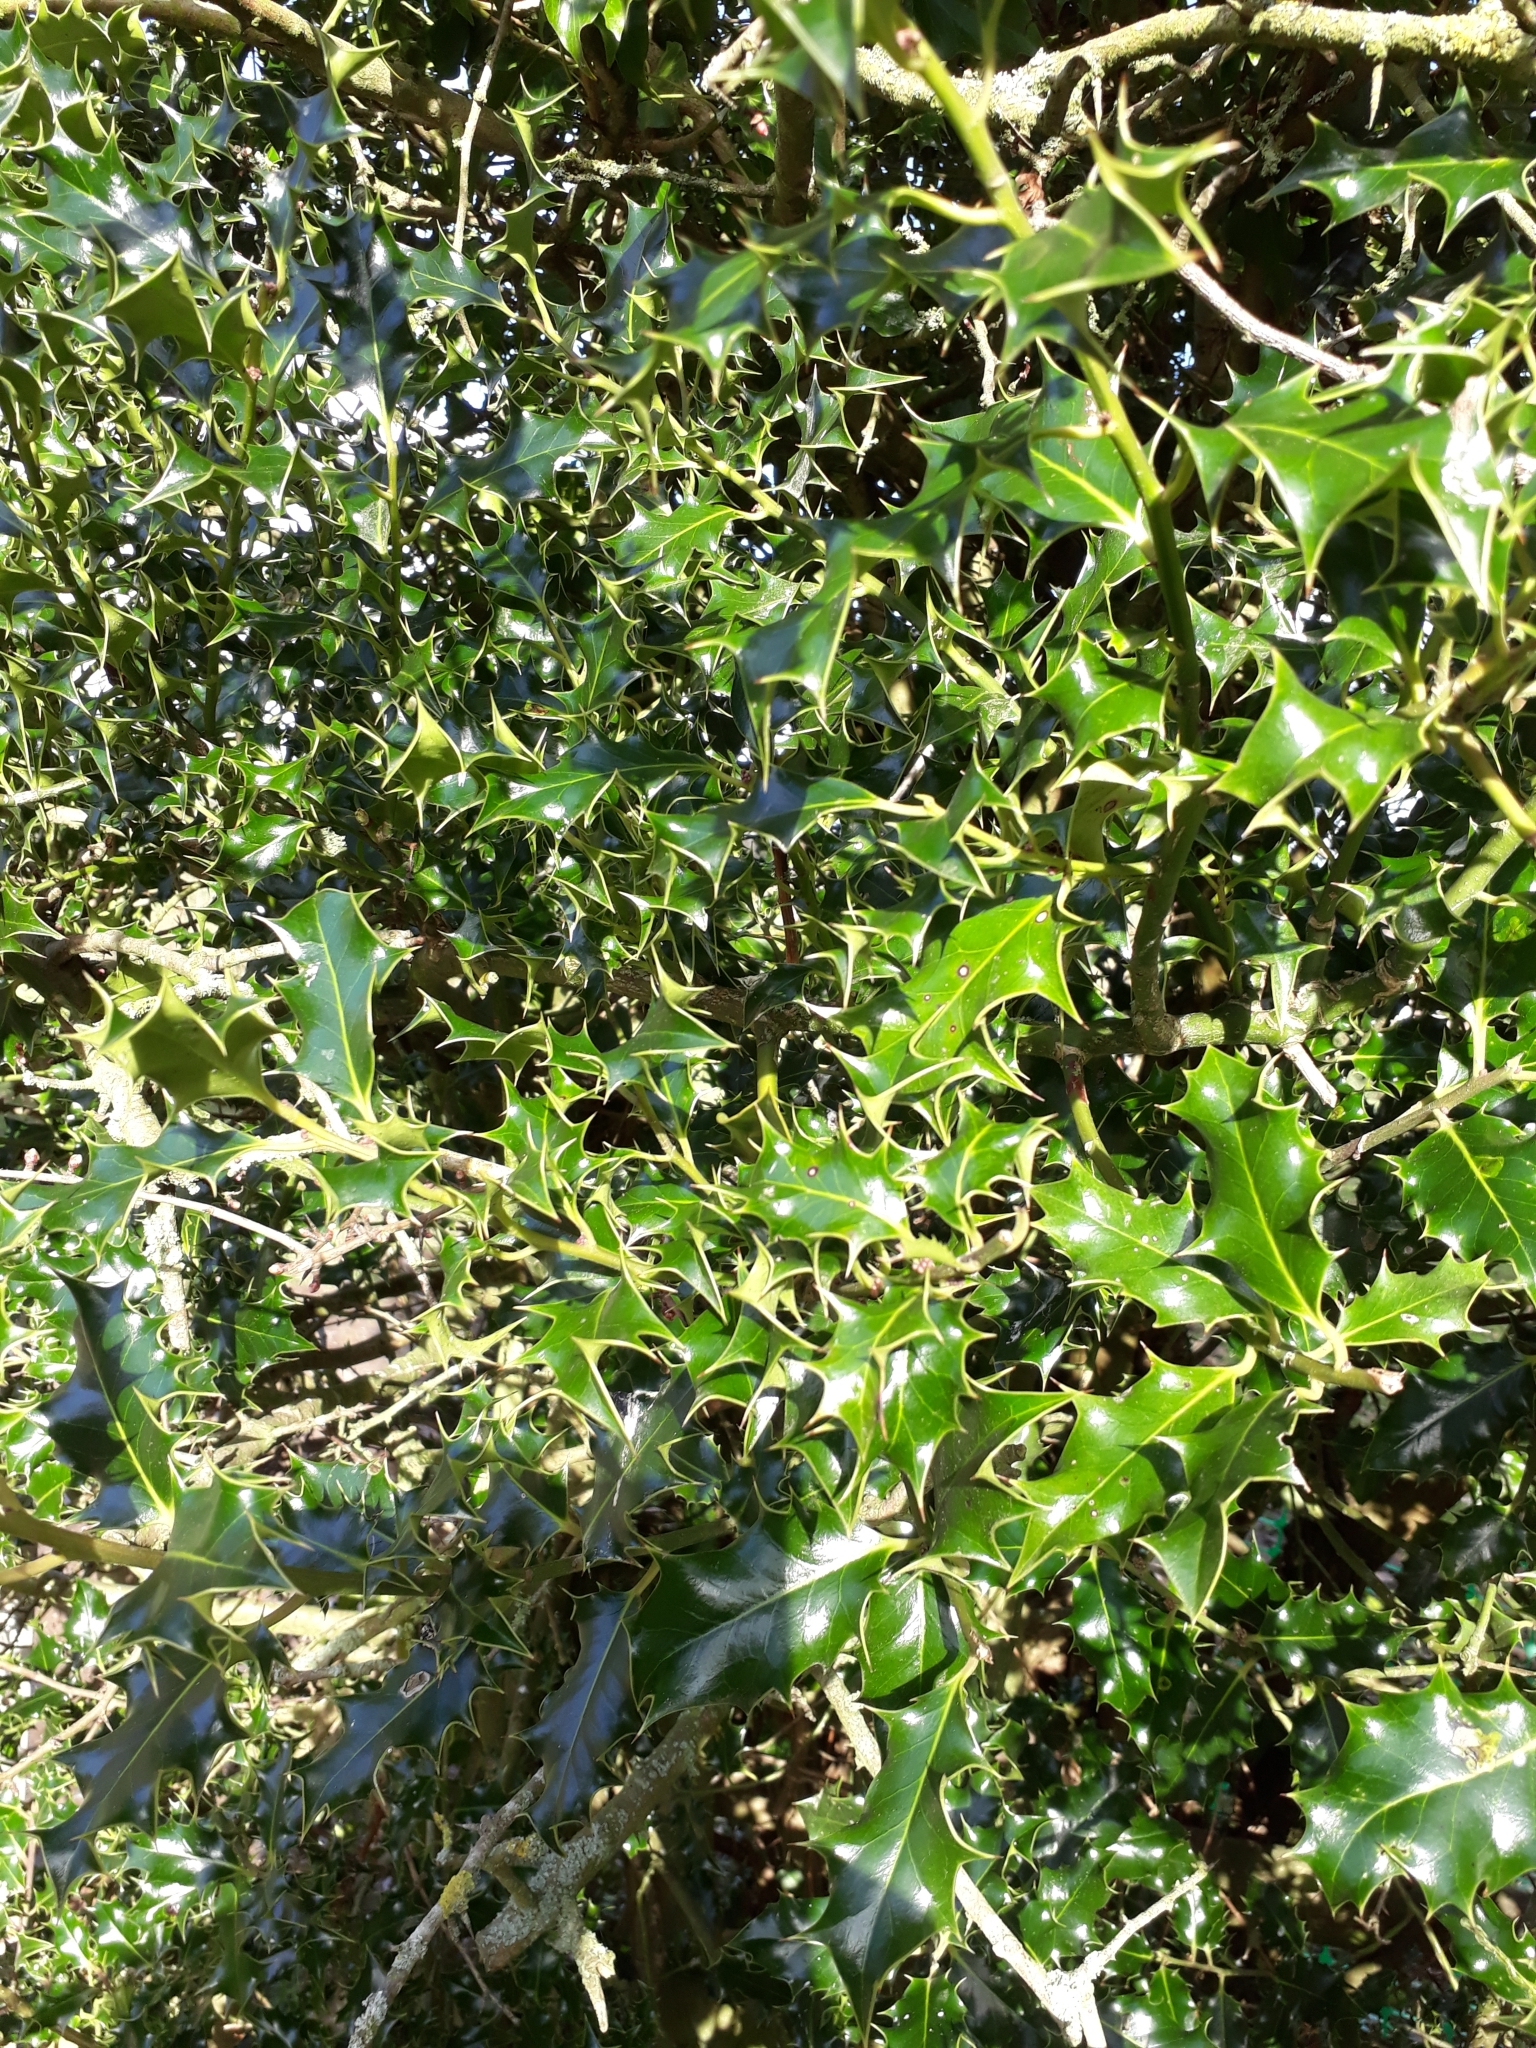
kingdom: Plantae
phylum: Tracheophyta
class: Magnoliopsida
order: Aquifoliales
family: Aquifoliaceae
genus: Ilex
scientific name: Ilex aquifolium
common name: English holly
